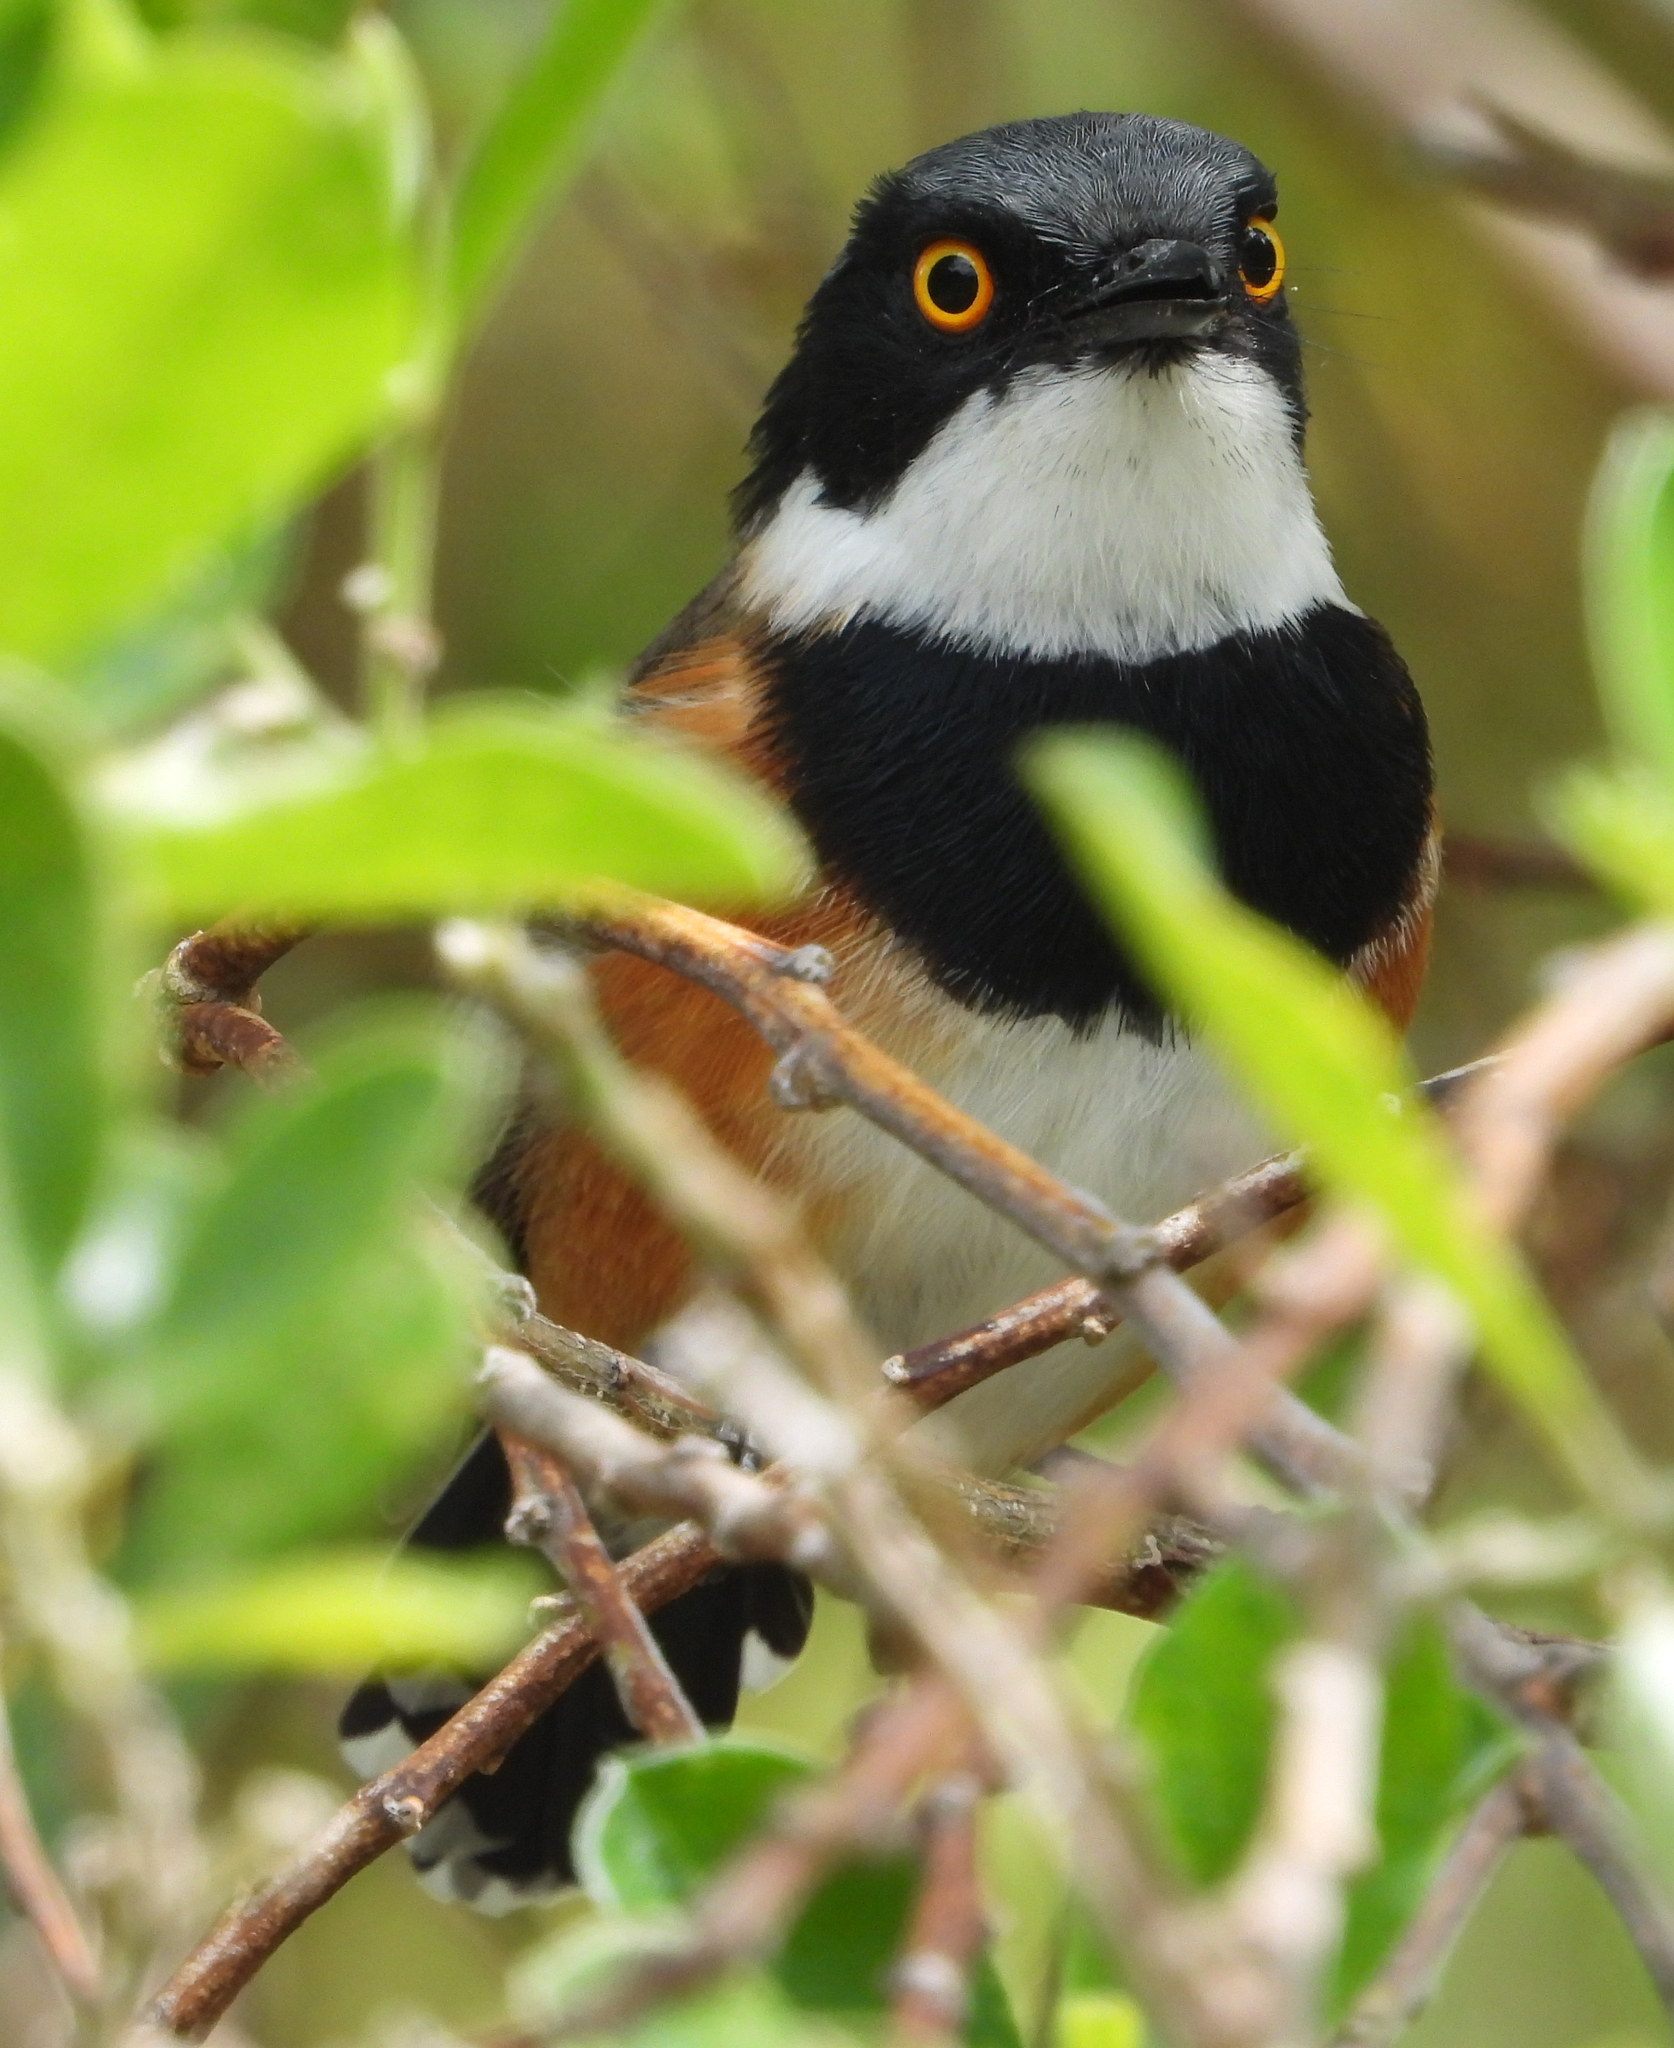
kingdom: Animalia
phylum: Chordata
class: Aves
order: Passeriformes
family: Platysteiridae
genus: Batis
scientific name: Batis capensis
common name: Cape batis
